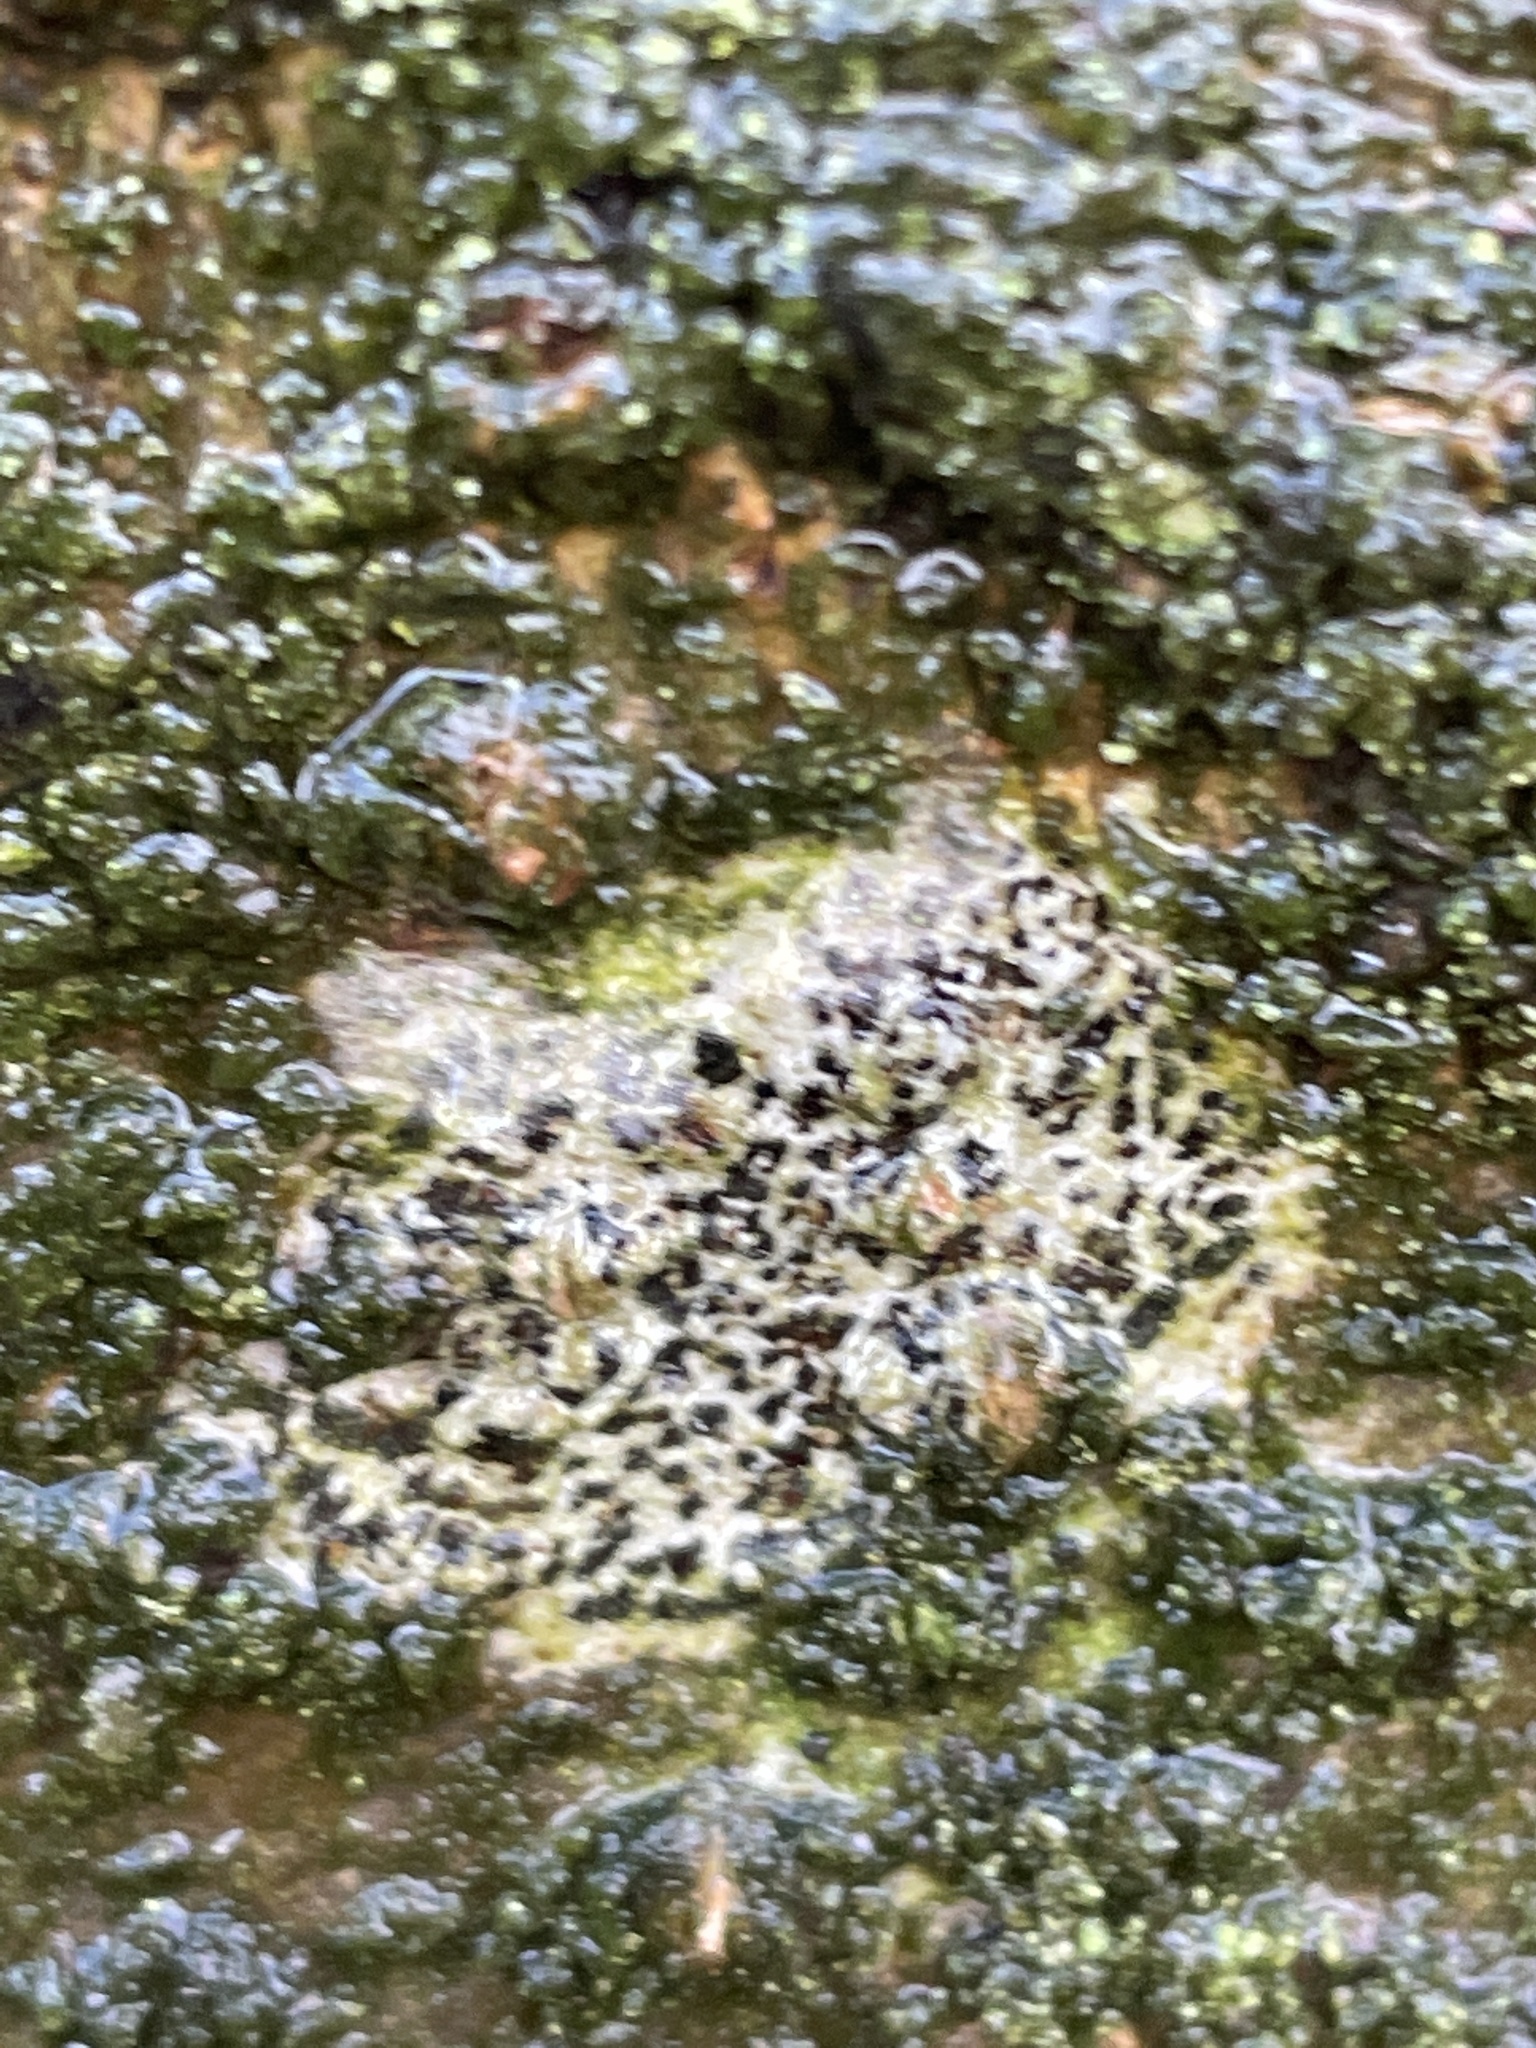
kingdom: Fungi
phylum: Ascomycota
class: Arthoniomycetes
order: Arthoniales
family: Arthoniaceae
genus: Arthonia
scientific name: Arthonia radiata
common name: Asterisk lichen
